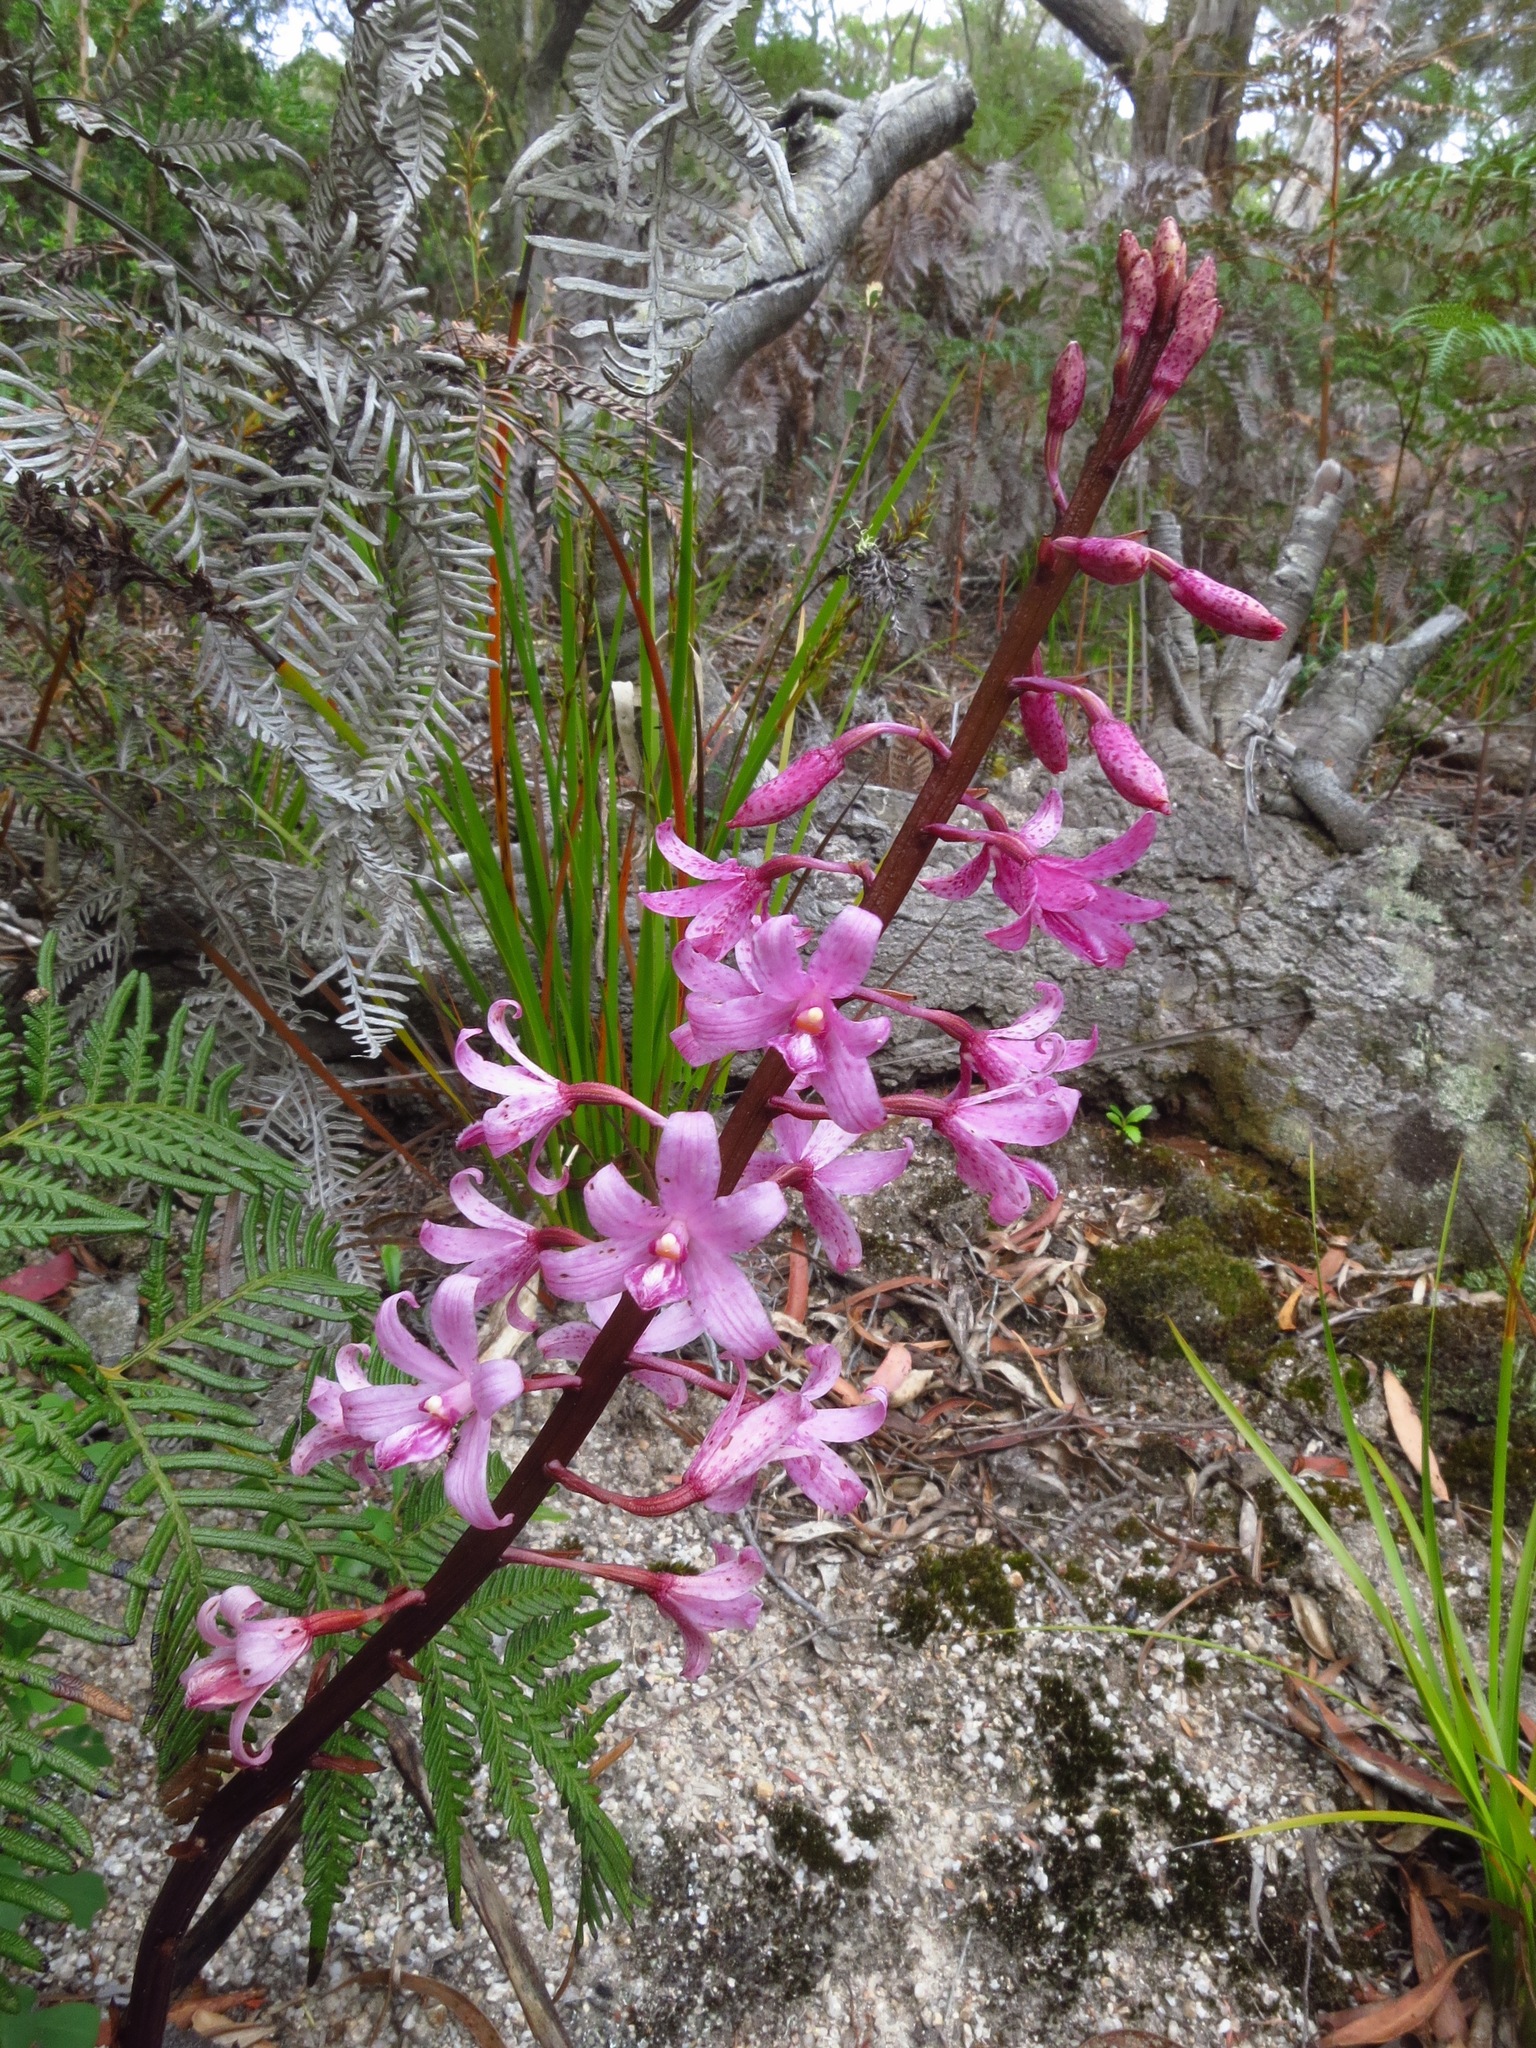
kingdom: Plantae
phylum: Tracheophyta
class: Liliopsida
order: Asparagales
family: Orchidaceae
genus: Dipodium
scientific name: Dipodium roseum
